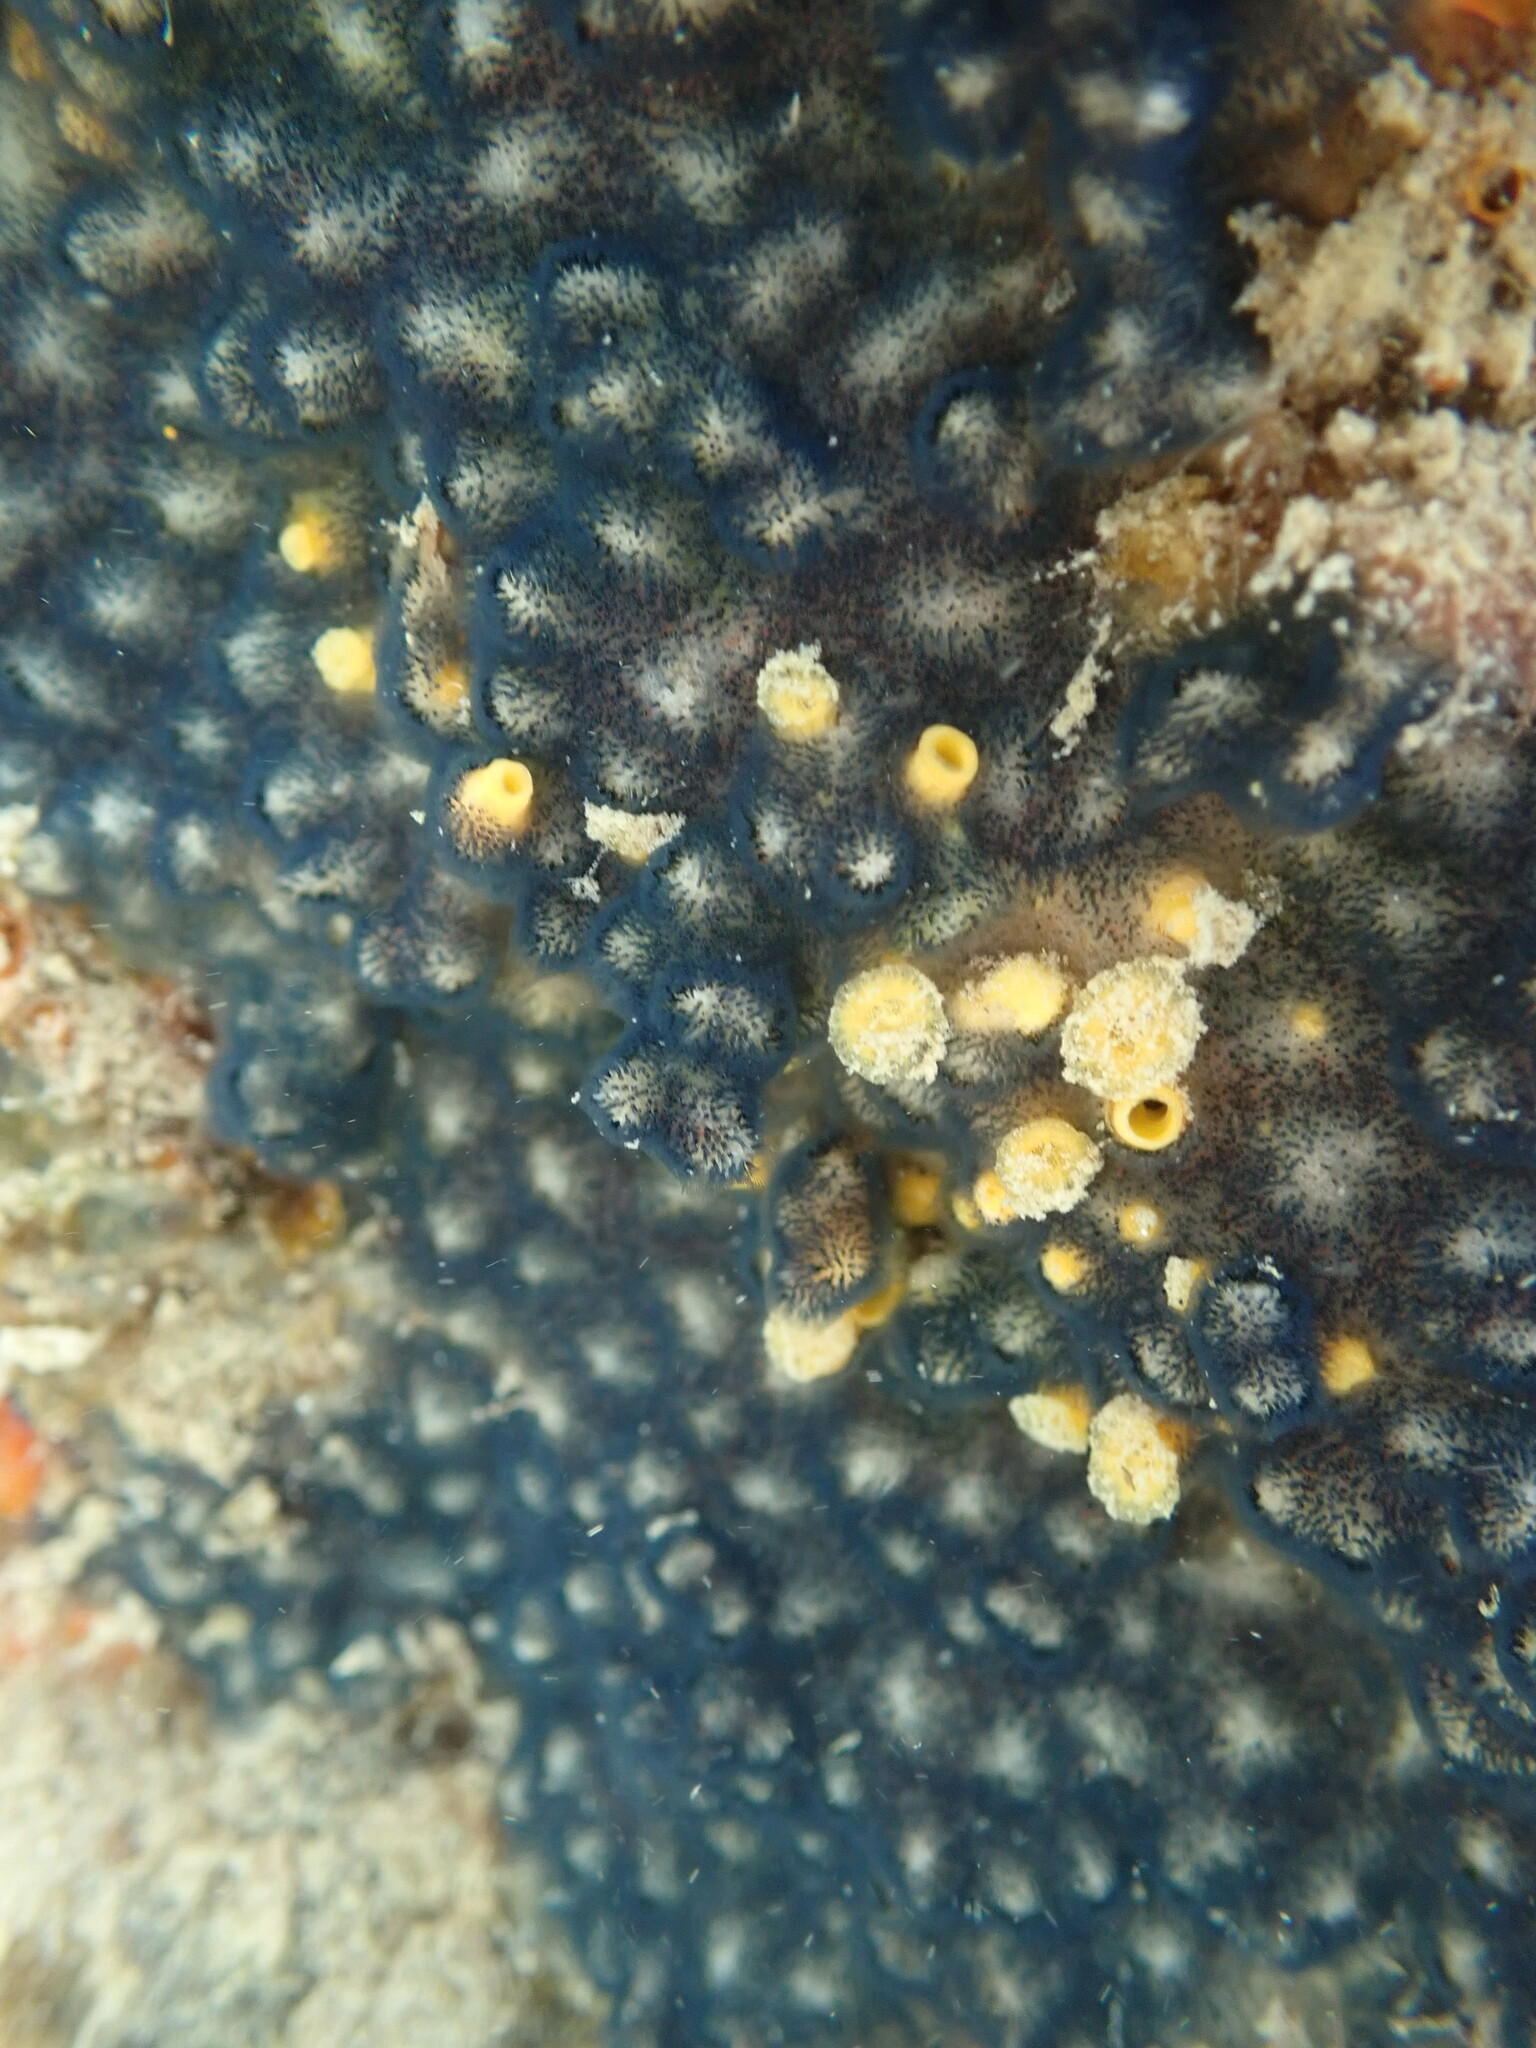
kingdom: Animalia
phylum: Bryozoa
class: Gymnolaemata
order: Cheilostomatida
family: Celleporidae
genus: Celleporaria
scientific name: Celleporaria nodulosa
